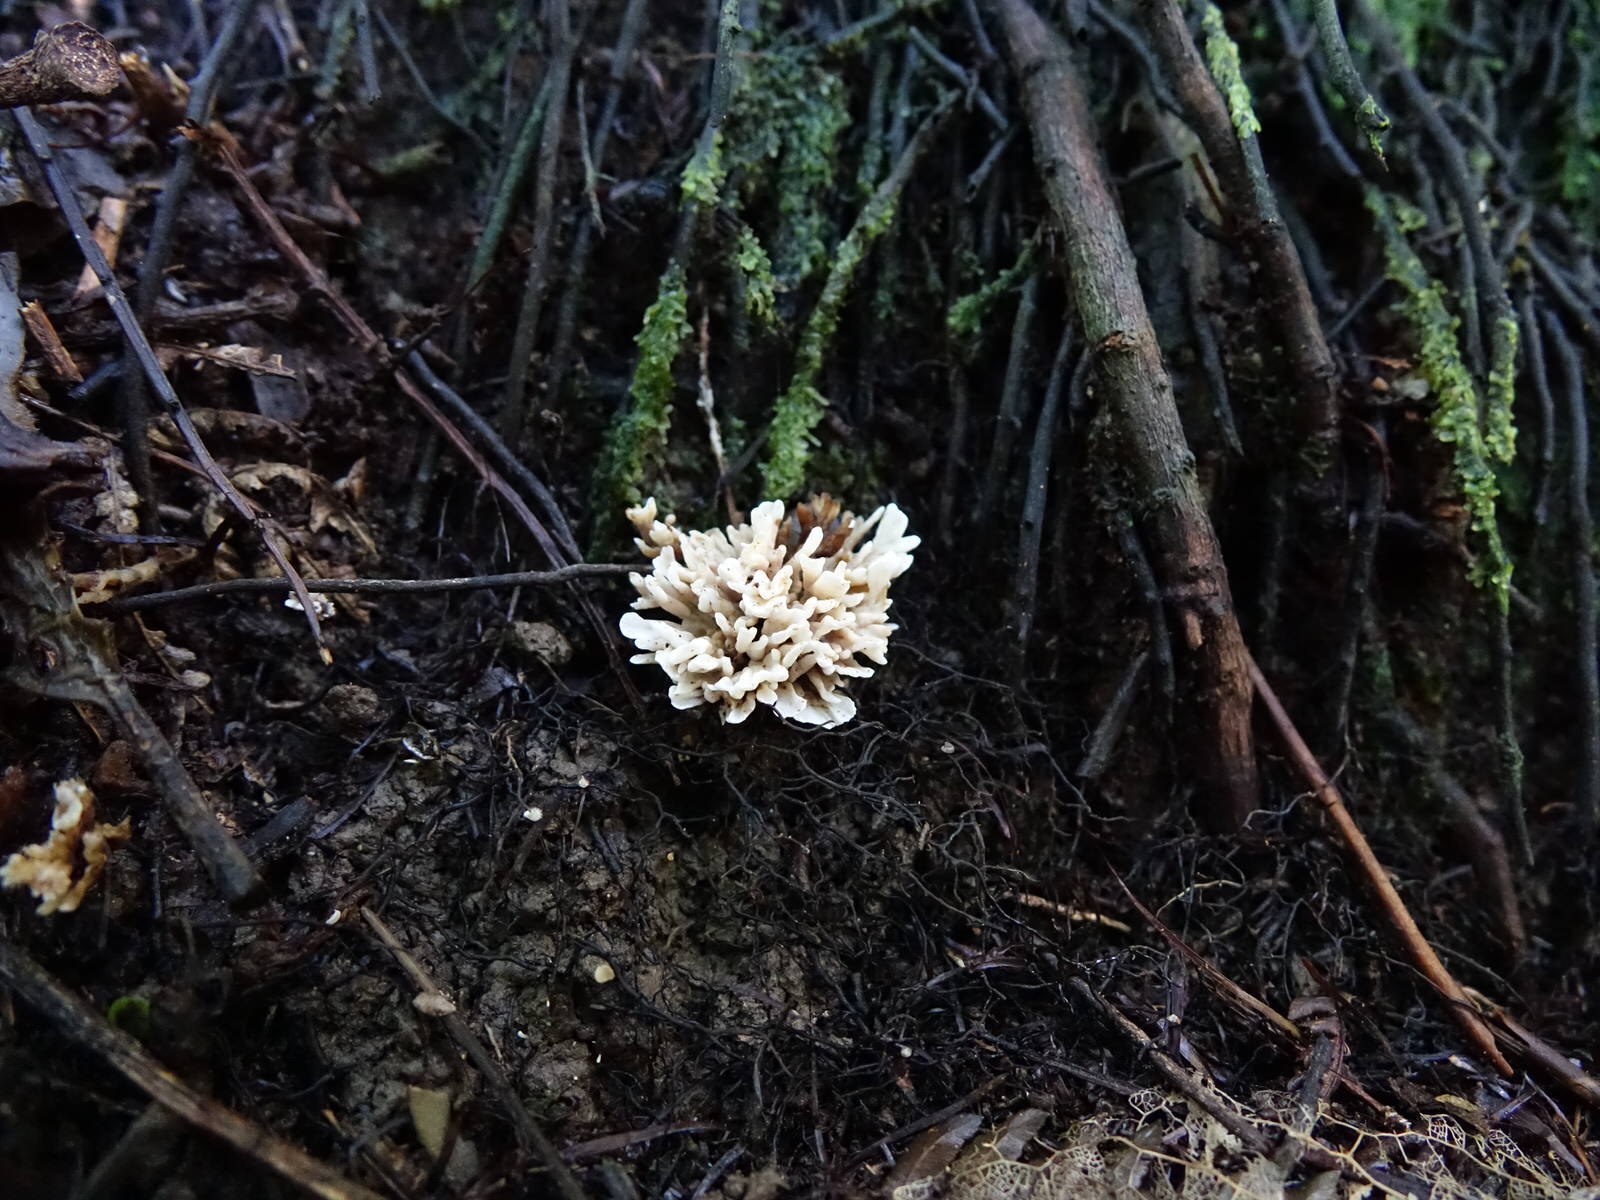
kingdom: Fungi
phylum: Basidiomycota
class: Agaricomycetes
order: Stereopsidales
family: Stereopsidaceae
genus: Stereopsis
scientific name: Stereopsis hiscens
